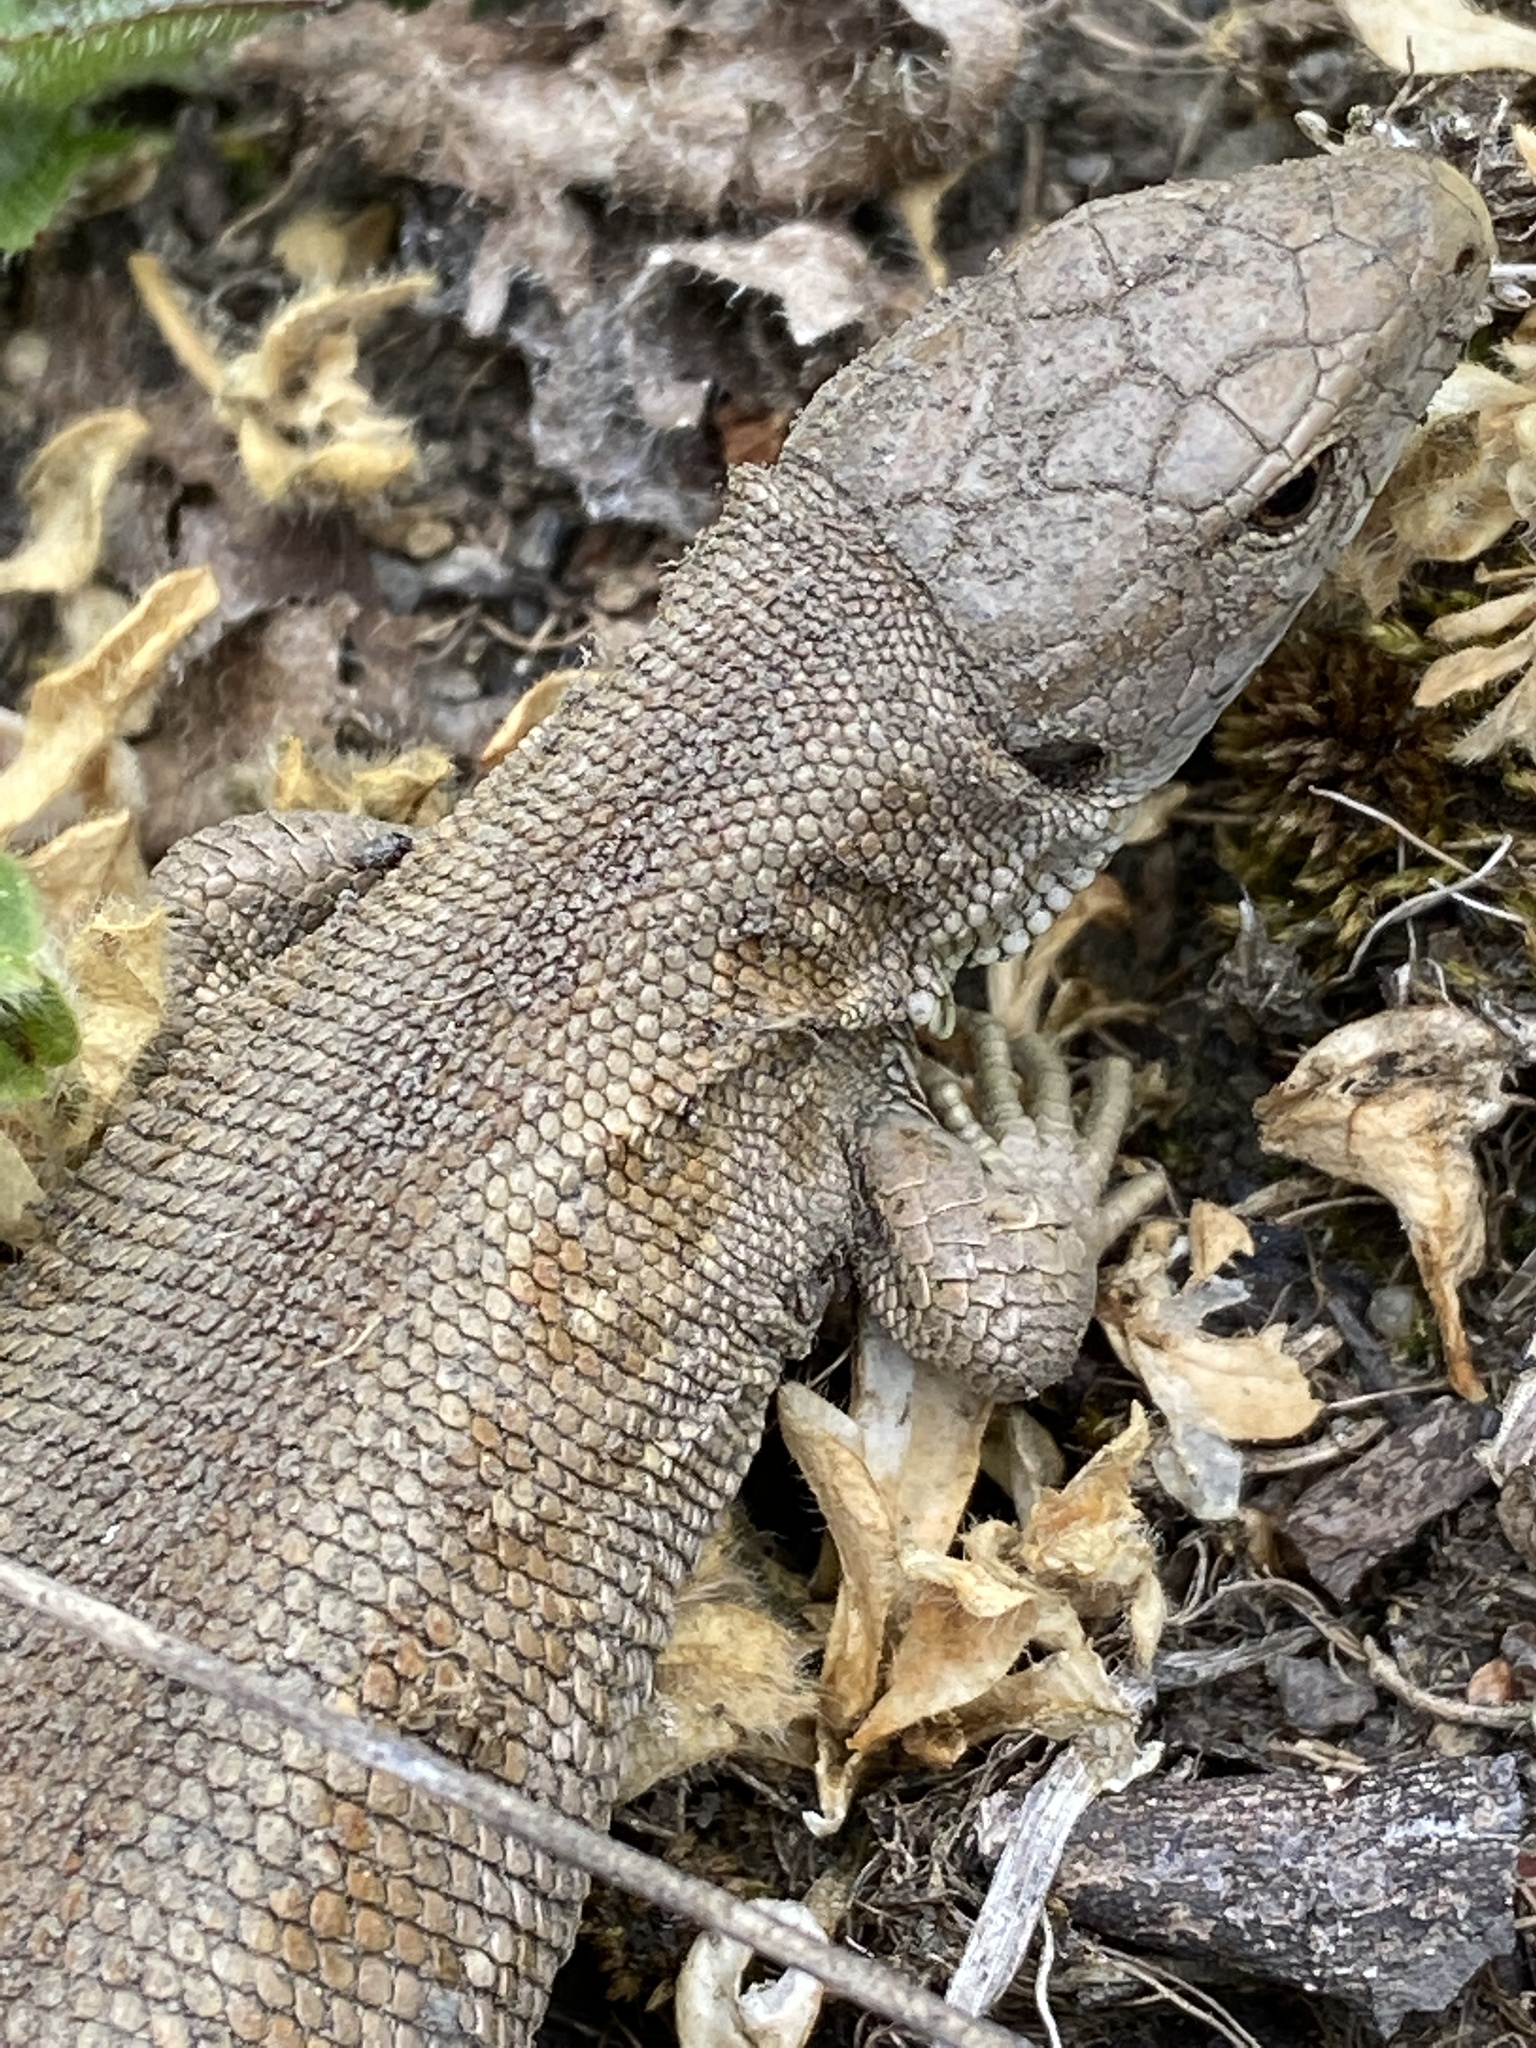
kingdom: Animalia
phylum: Chordata
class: Squamata
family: Lacertidae
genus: Lacerta
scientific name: Lacerta agilis
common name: Sand lizard
